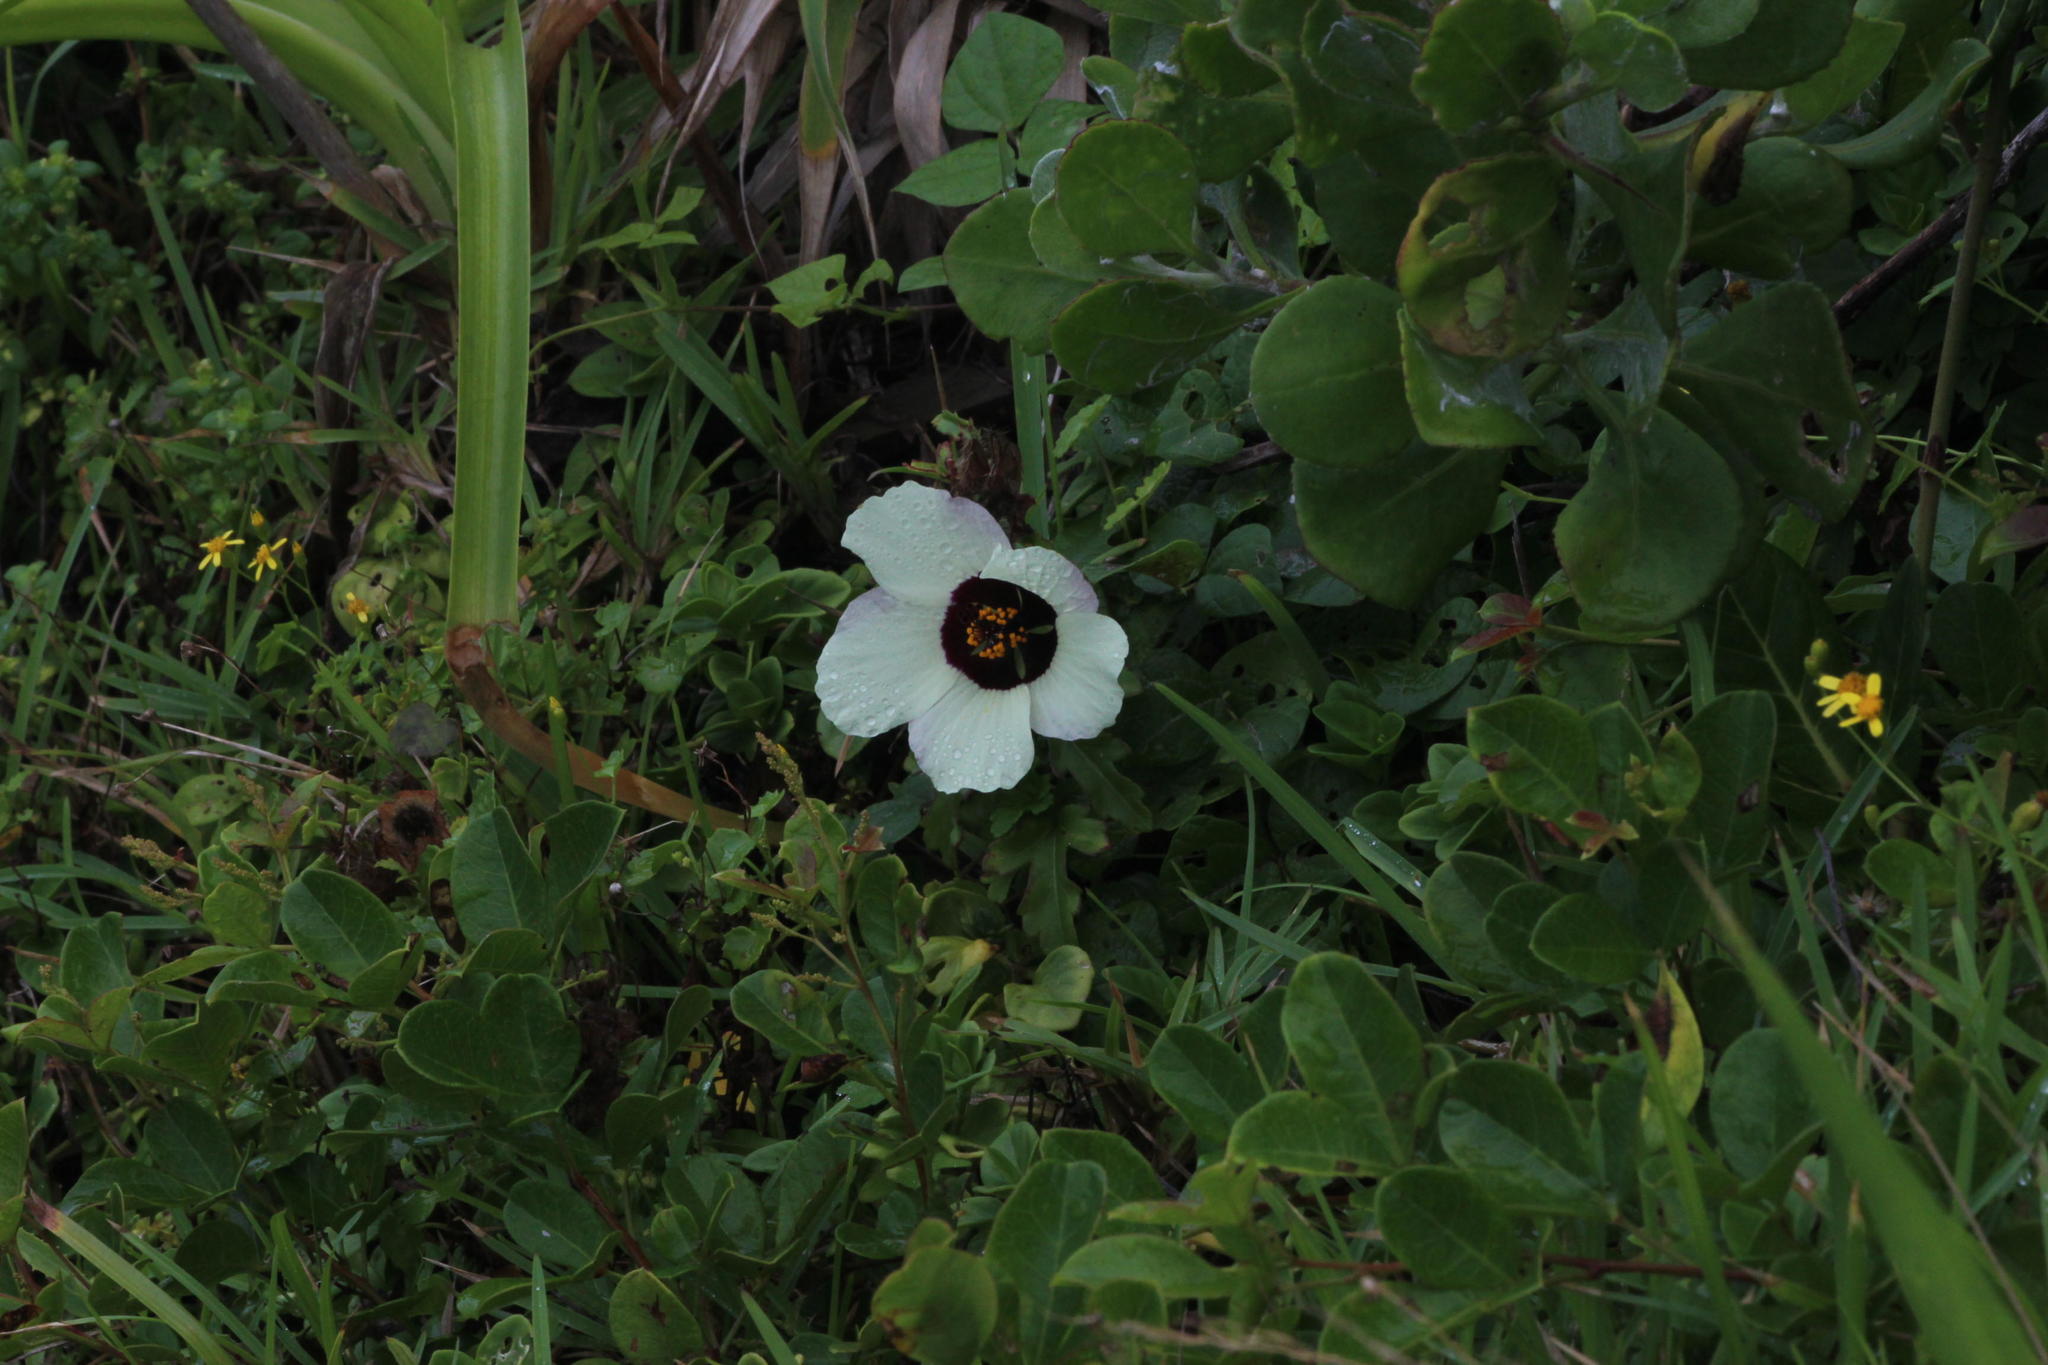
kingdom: Plantae
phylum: Tracheophyta
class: Magnoliopsida
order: Malvales
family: Malvaceae
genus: Hibiscus
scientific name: Hibiscus trionum
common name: Bladder ketmia
